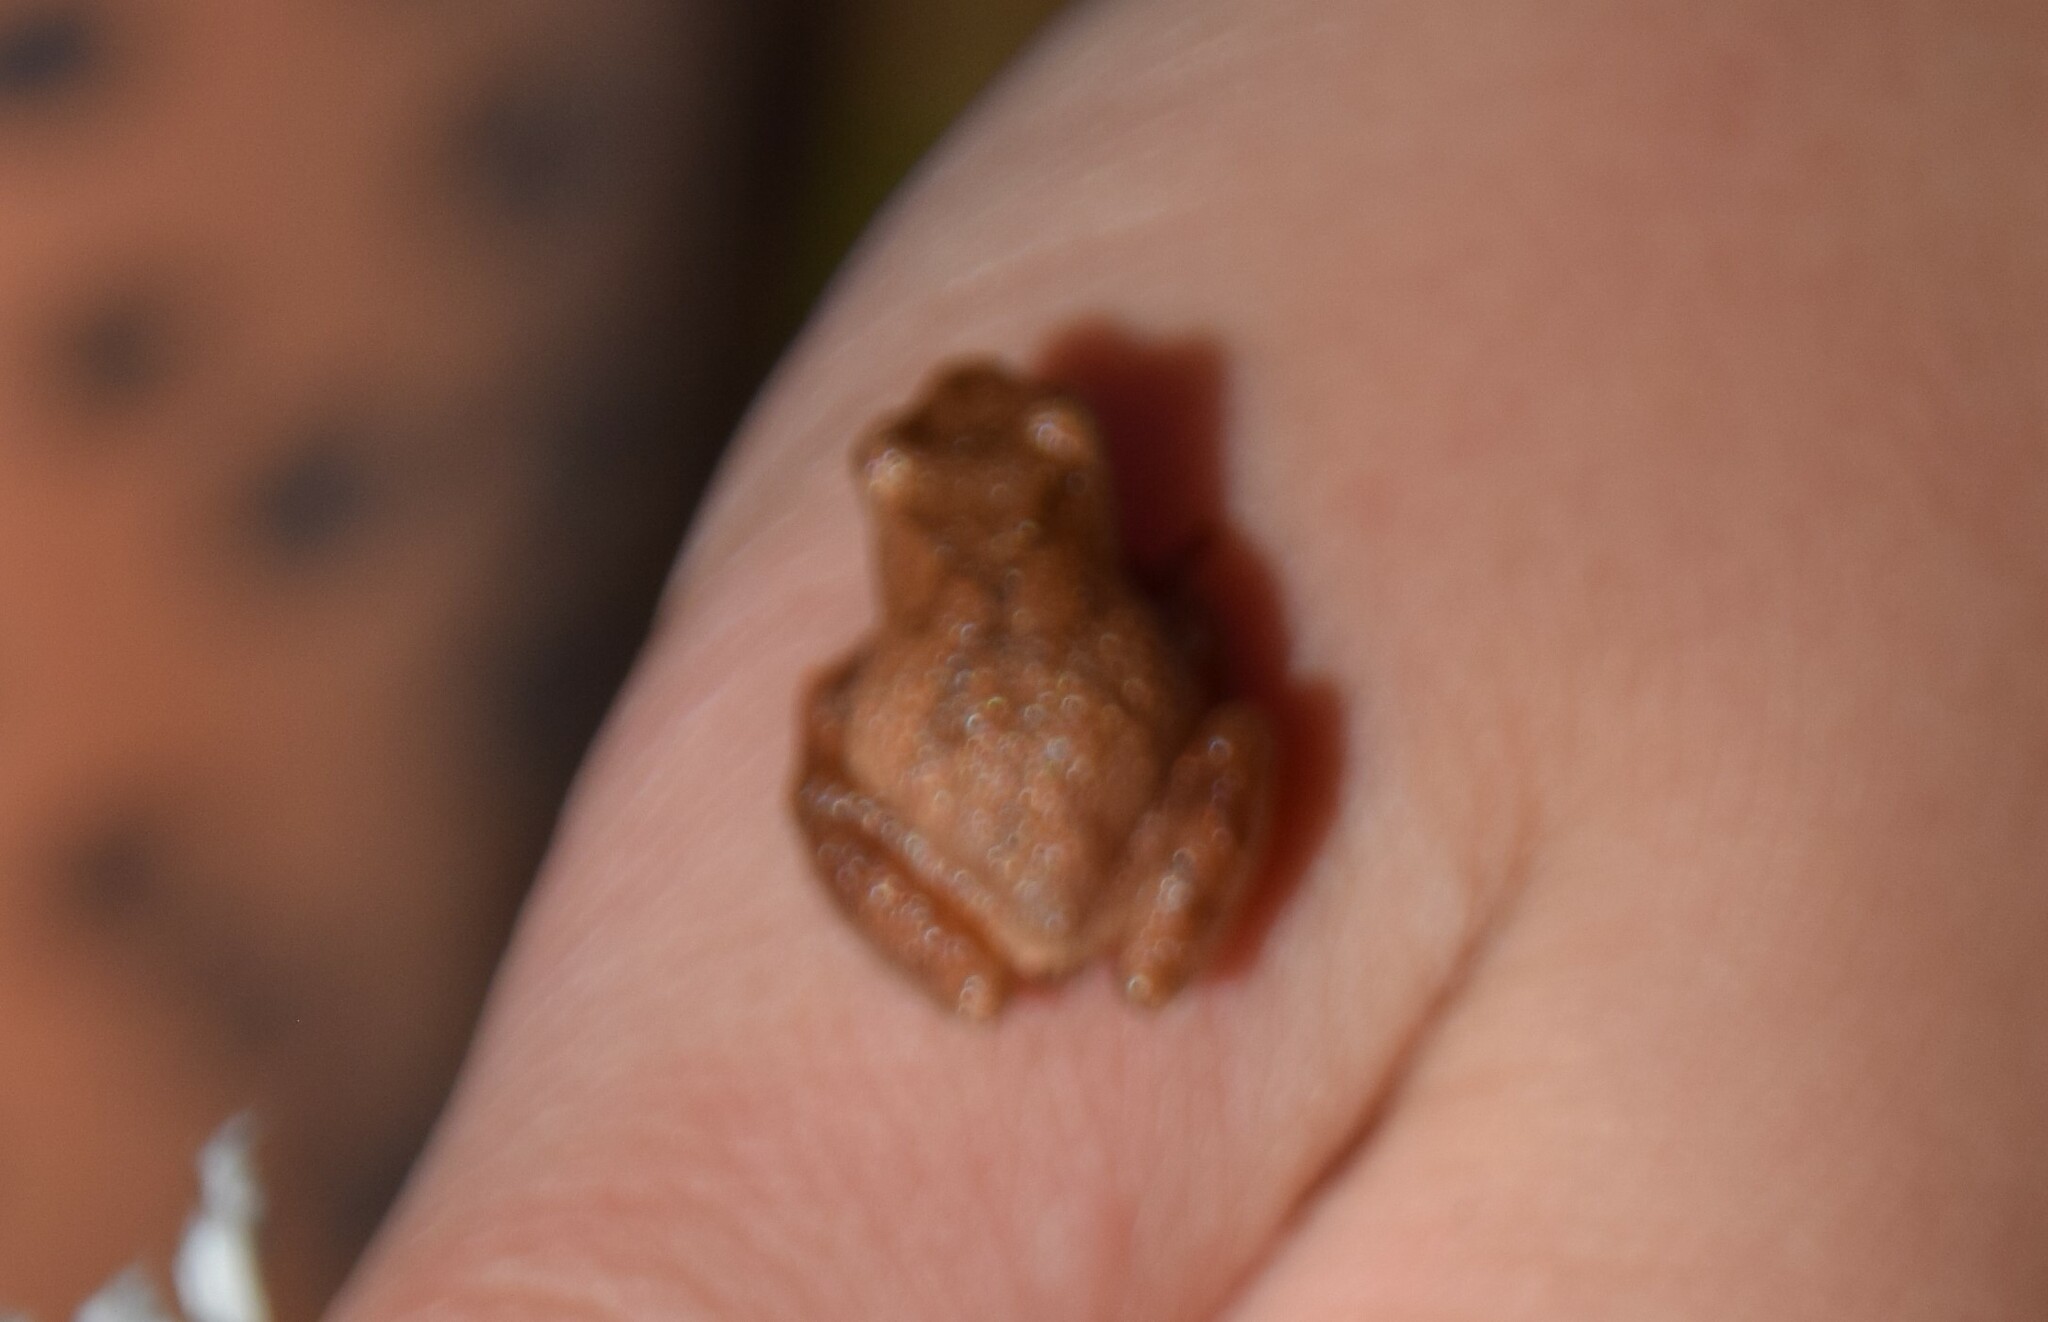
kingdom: Animalia
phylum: Chordata
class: Amphibia
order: Anura
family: Hylidae
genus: Pseudacris
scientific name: Pseudacris crucifer
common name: Spring peeper
